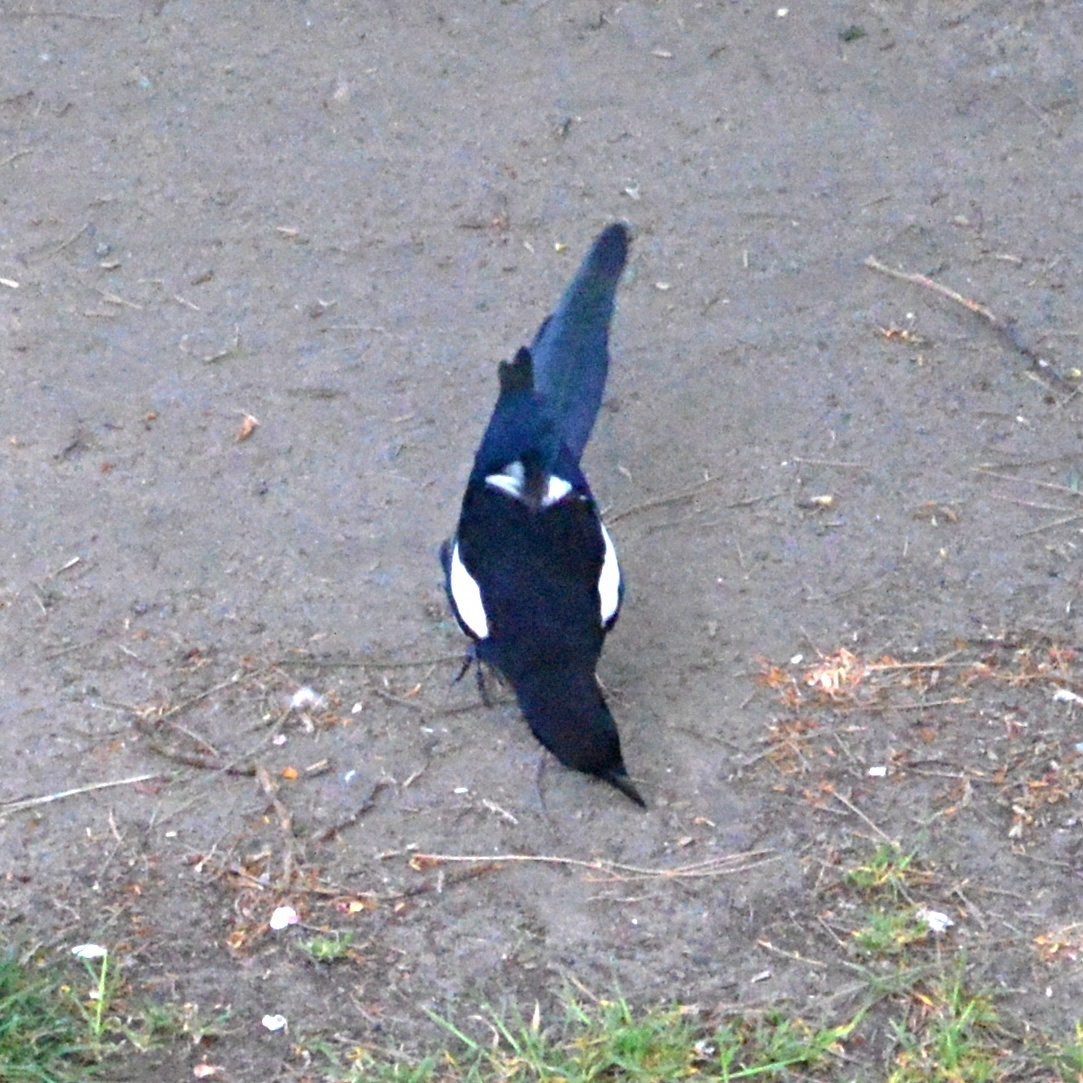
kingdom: Animalia
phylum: Chordata
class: Aves
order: Passeriformes
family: Corvidae
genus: Pica
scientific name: Pica pica
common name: Eurasian magpie
